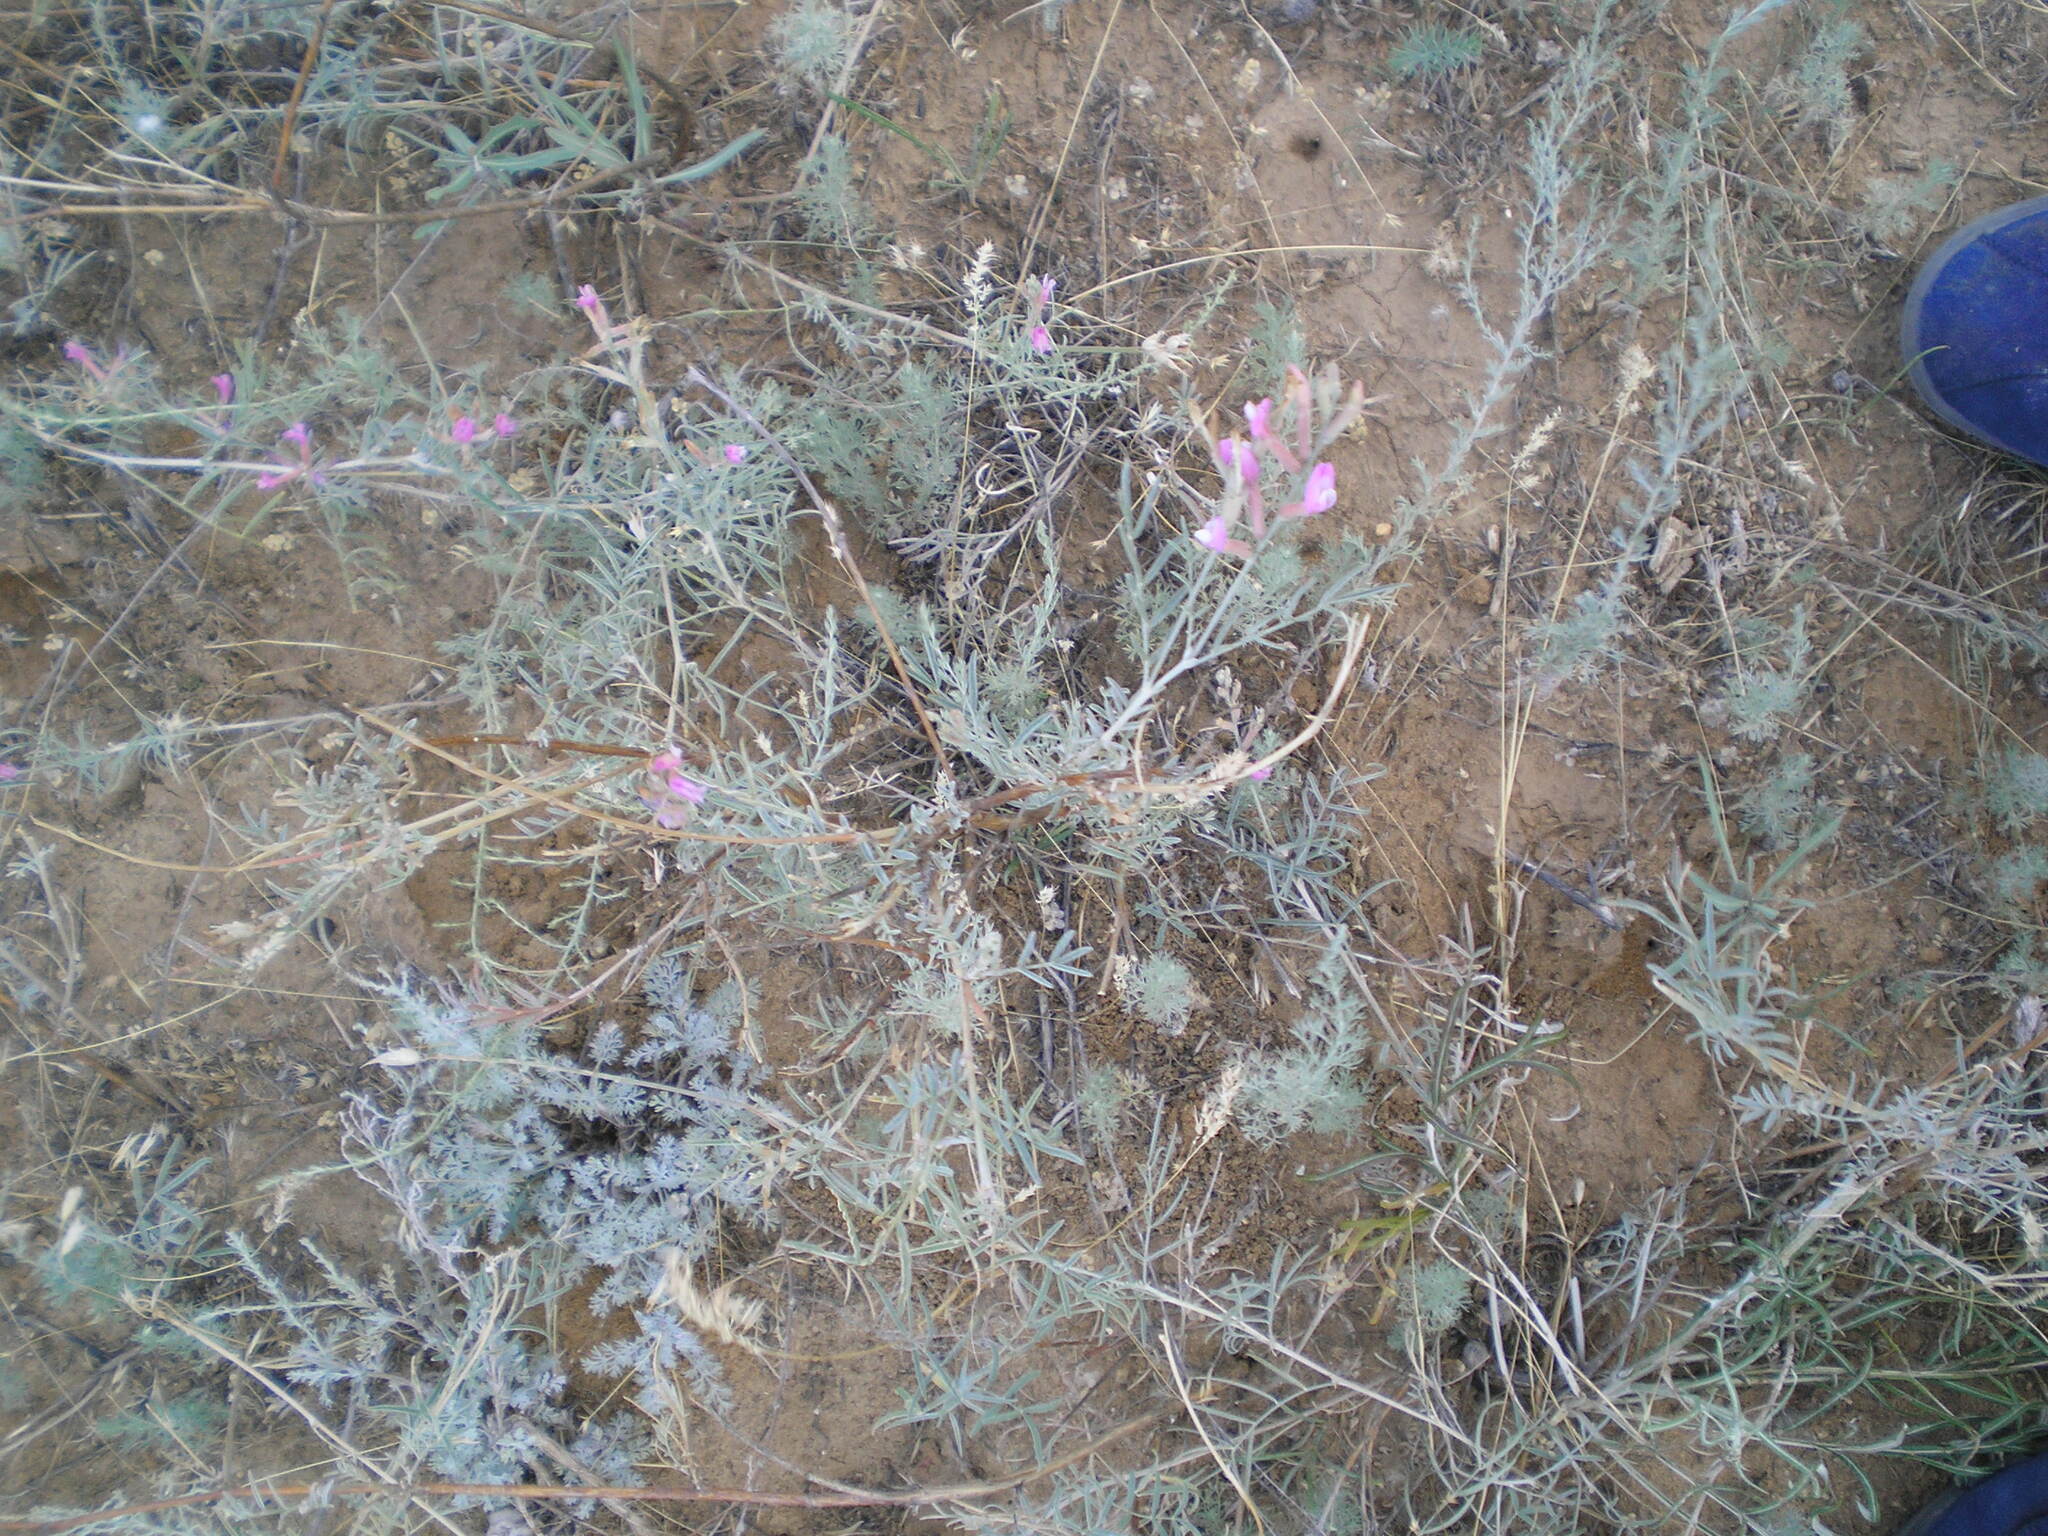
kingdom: Plantae
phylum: Tracheophyta
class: Magnoliopsida
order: Fabales
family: Fabaceae
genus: Astragalus
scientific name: Astragalus varius
